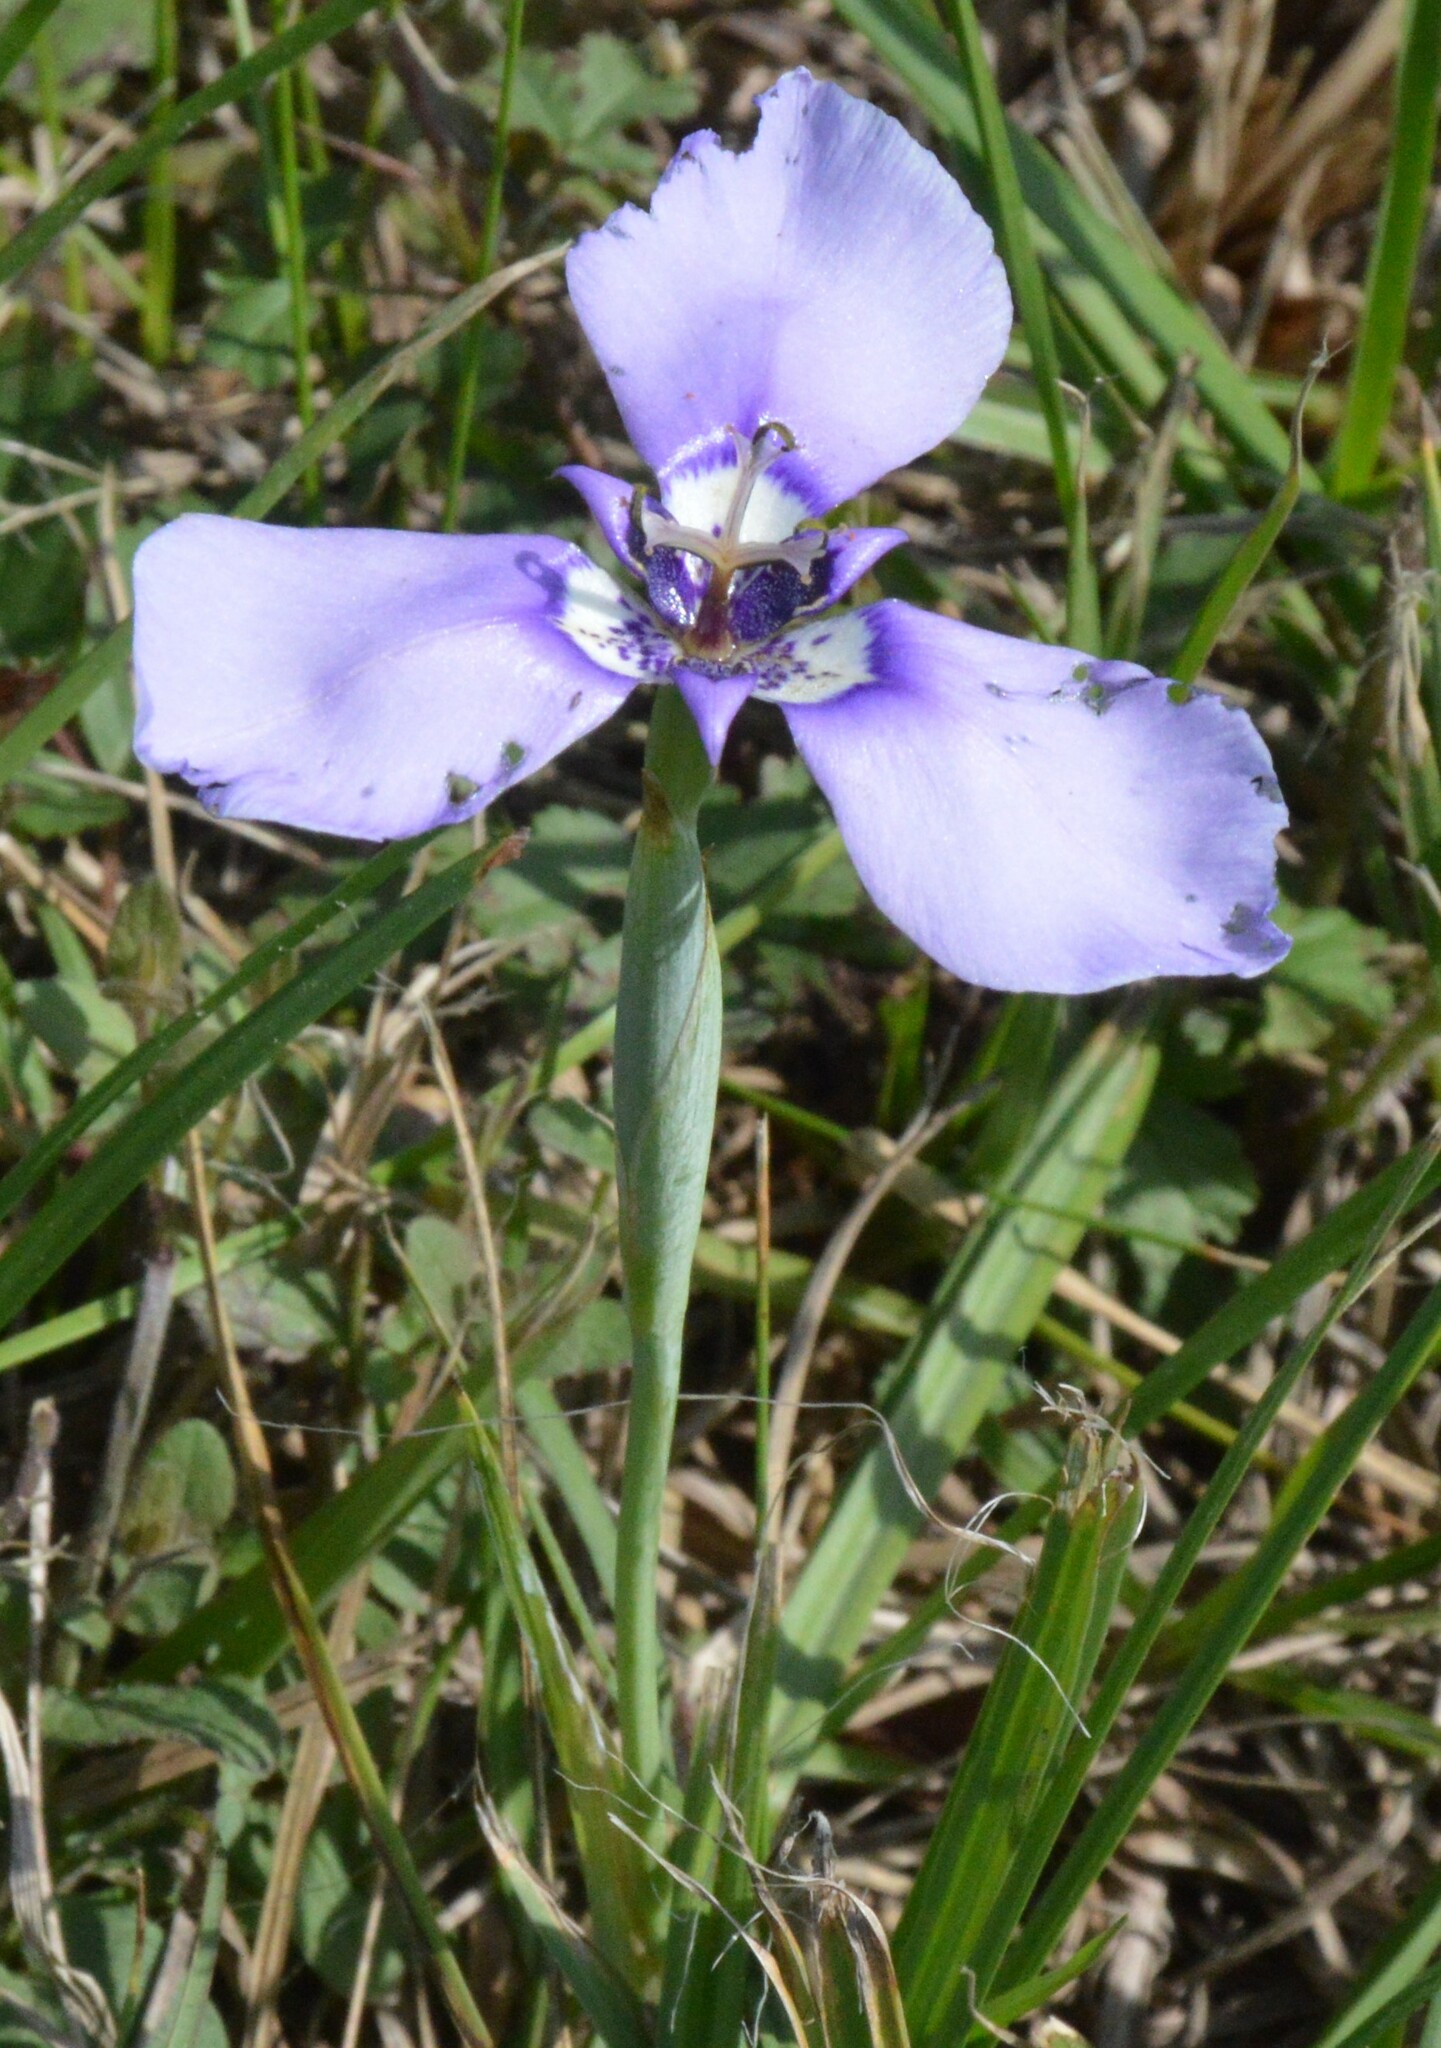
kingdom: Plantae
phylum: Tracheophyta
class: Liliopsida
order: Asparagales
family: Iridaceae
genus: Herbertia
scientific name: Herbertia lahue
